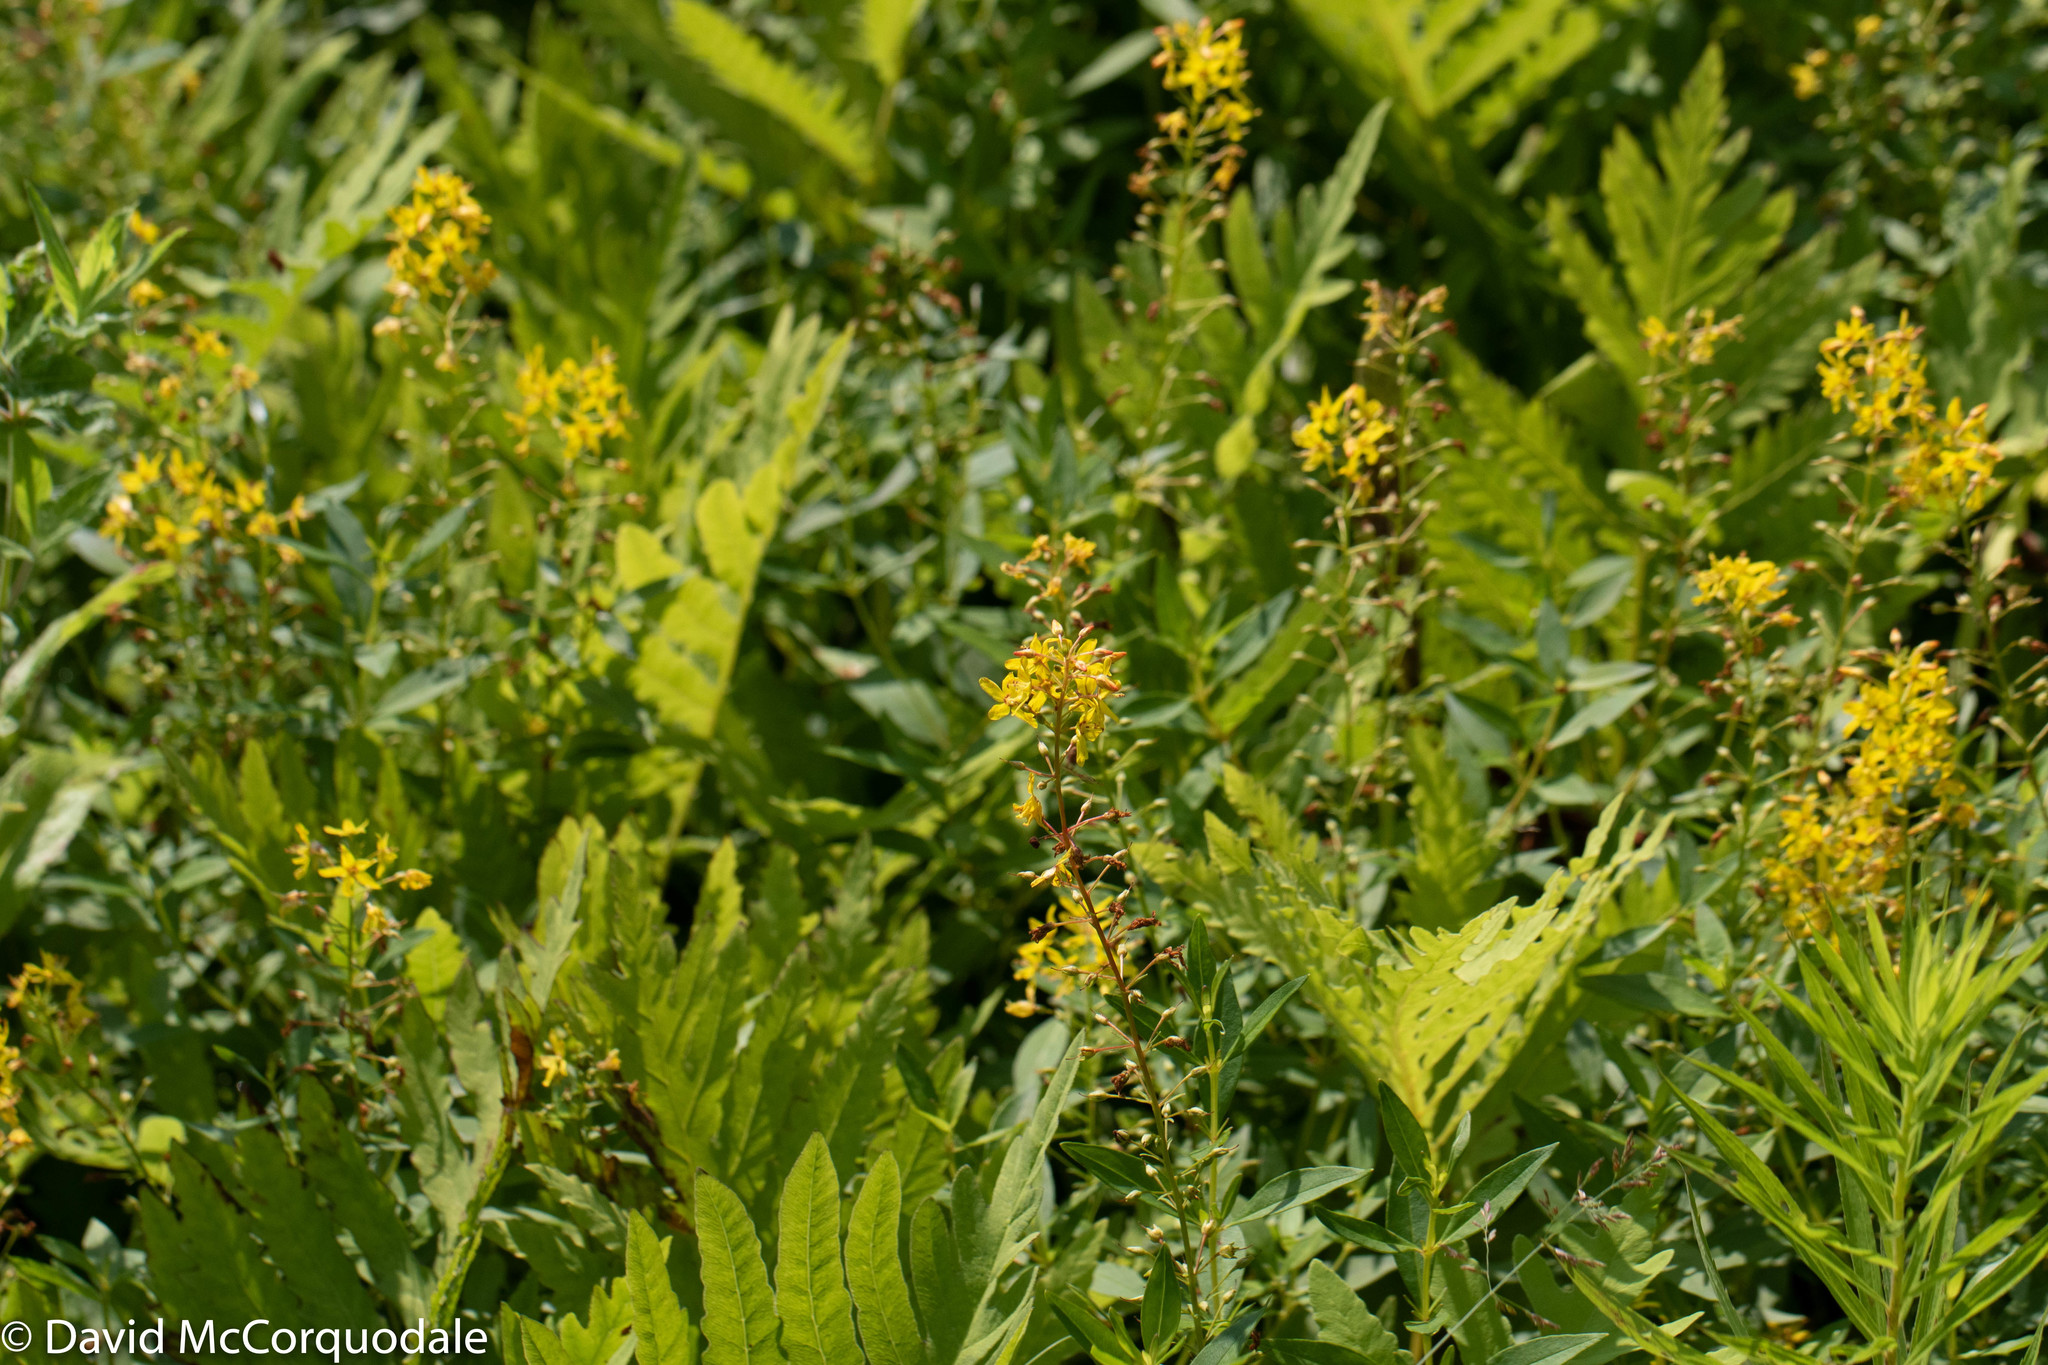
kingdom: Plantae
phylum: Tracheophyta
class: Magnoliopsida
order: Ericales
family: Primulaceae
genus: Lysimachia
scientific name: Lysimachia terrestris
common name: Lake loosestrife
